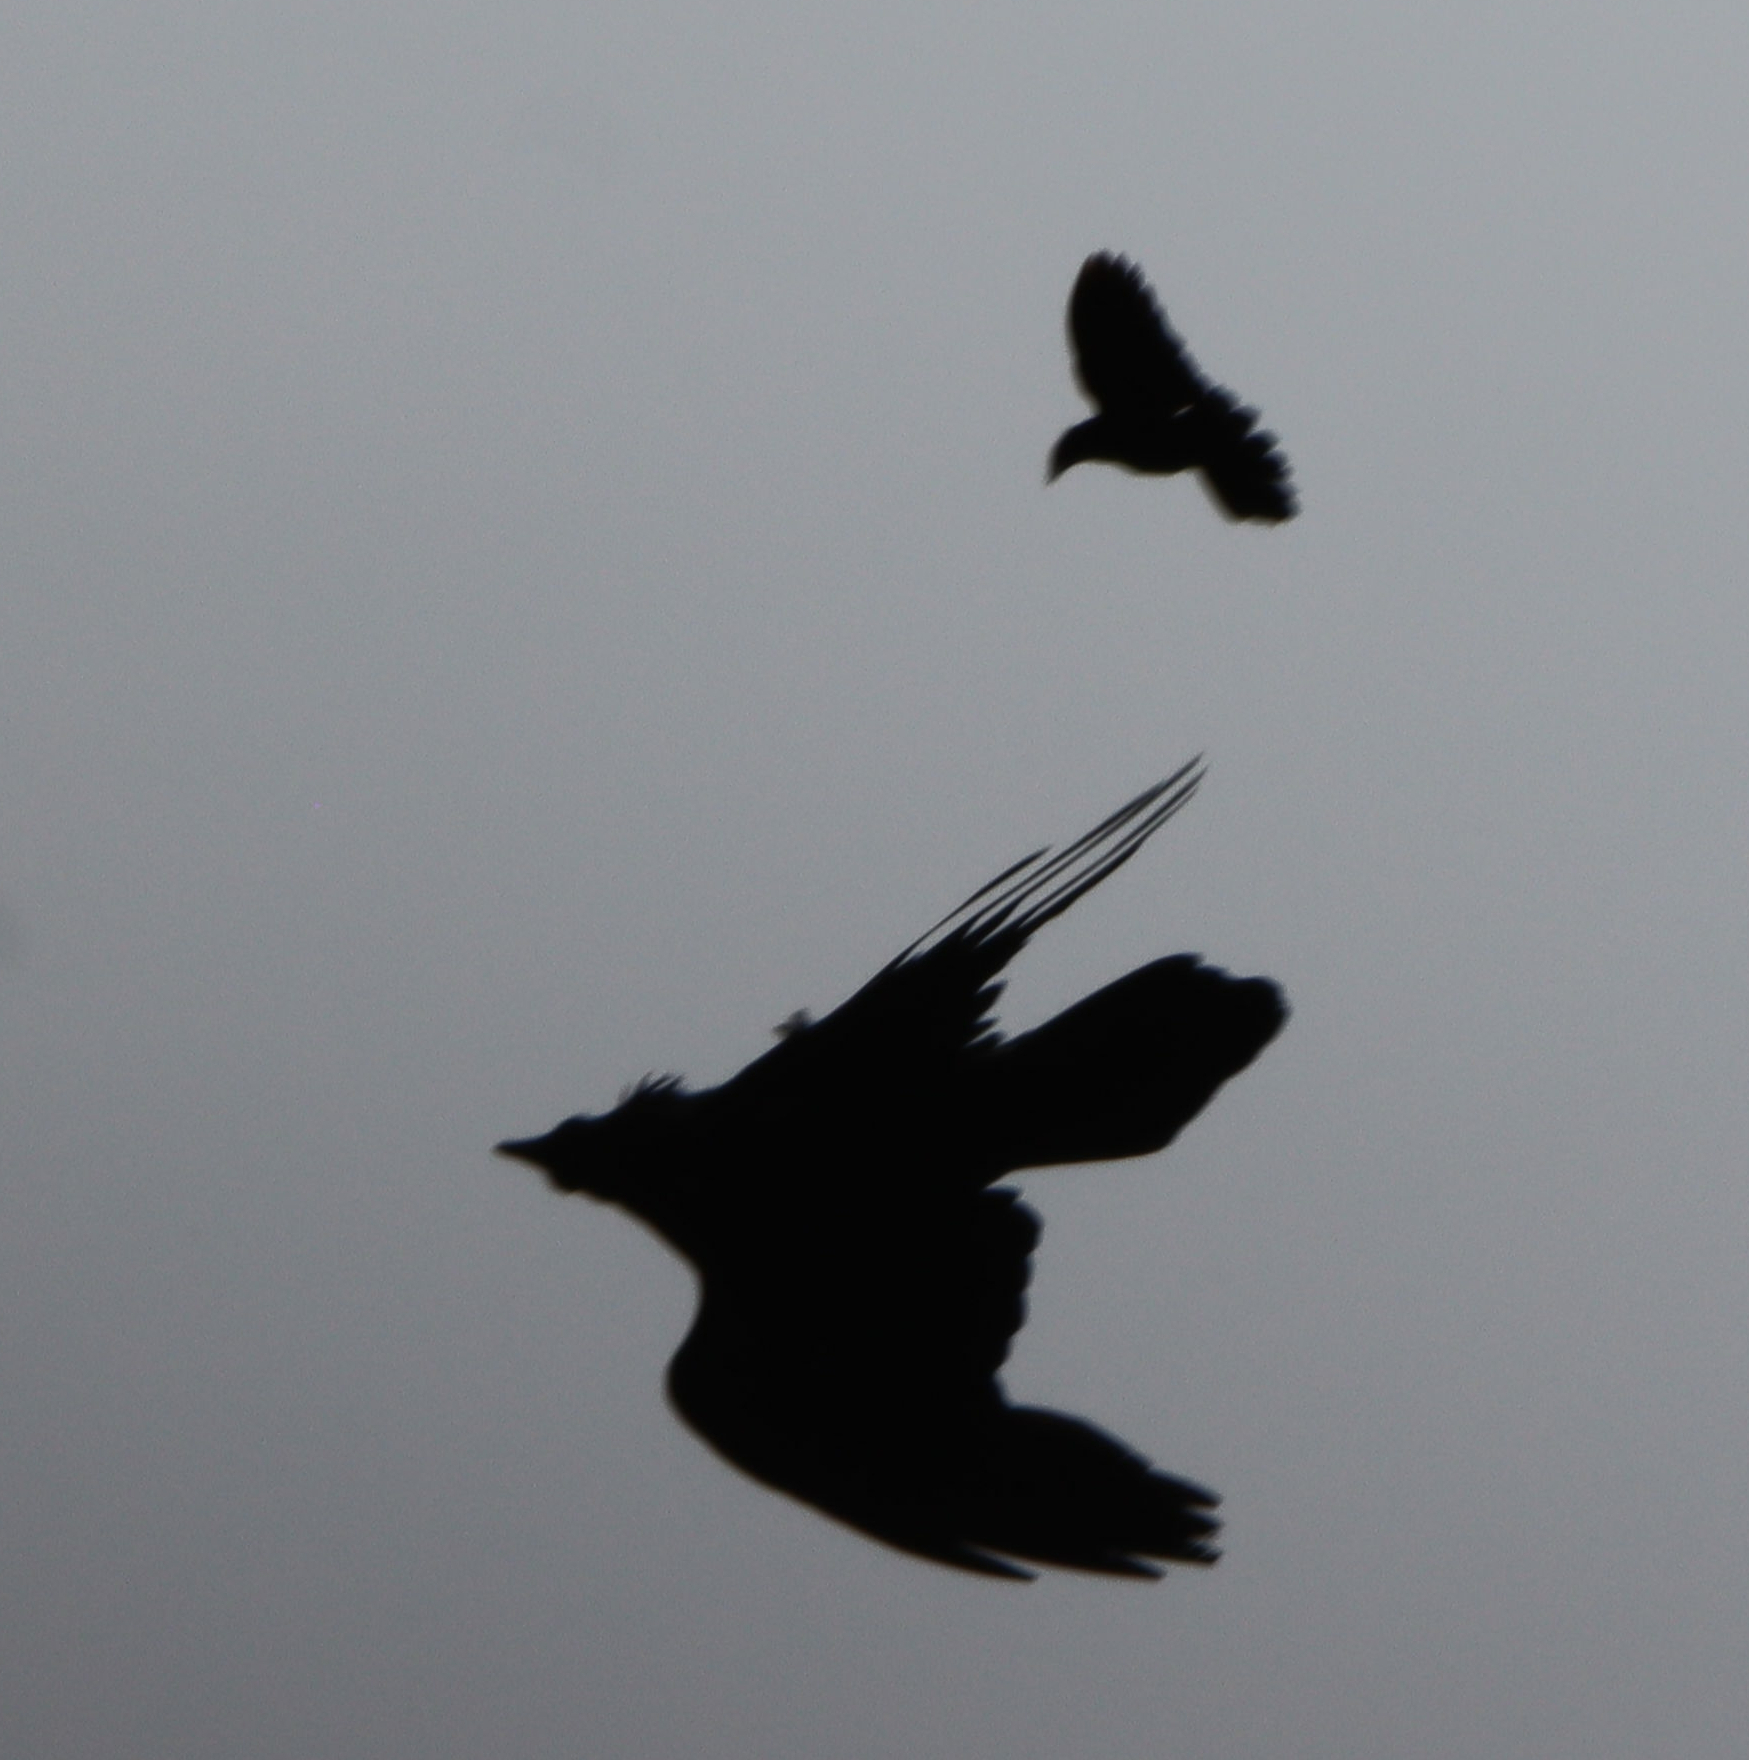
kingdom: Animalia
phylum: Chordata
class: Aves
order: Passeriformes
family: Corvidae
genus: Corvus
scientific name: Corvus corax
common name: Common raven
